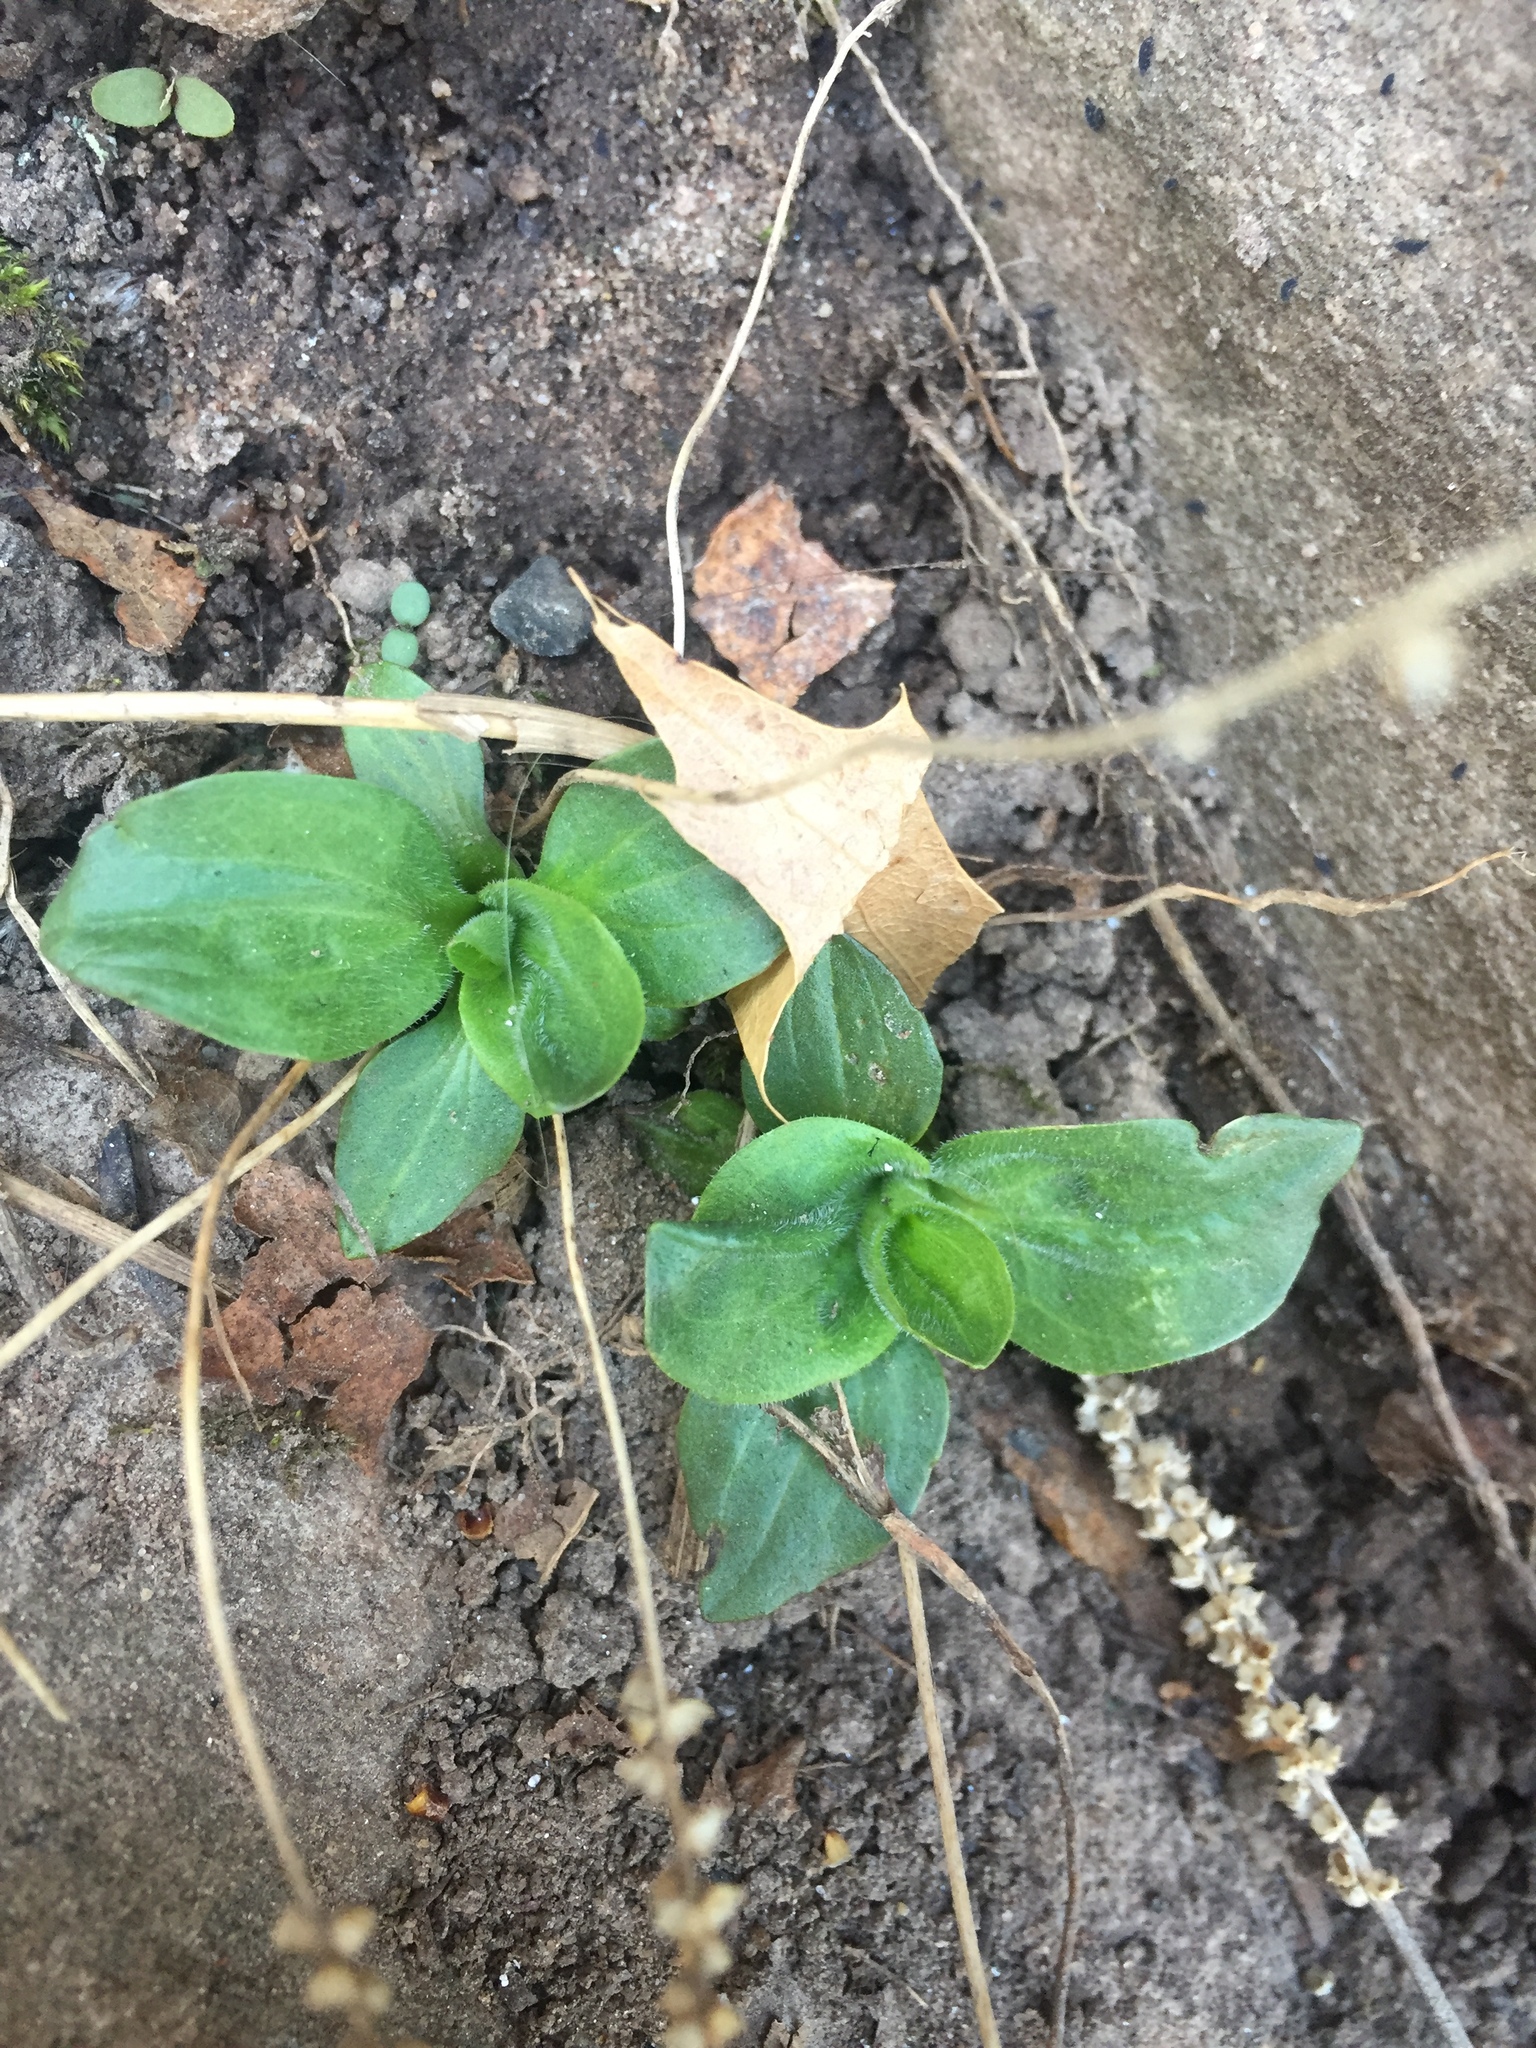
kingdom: Plantae
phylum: Tracheophyta
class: Magnoliopsida
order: Lamiales
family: Plantaginaceae
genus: Plantago
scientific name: Plantago major
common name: Common plantain
